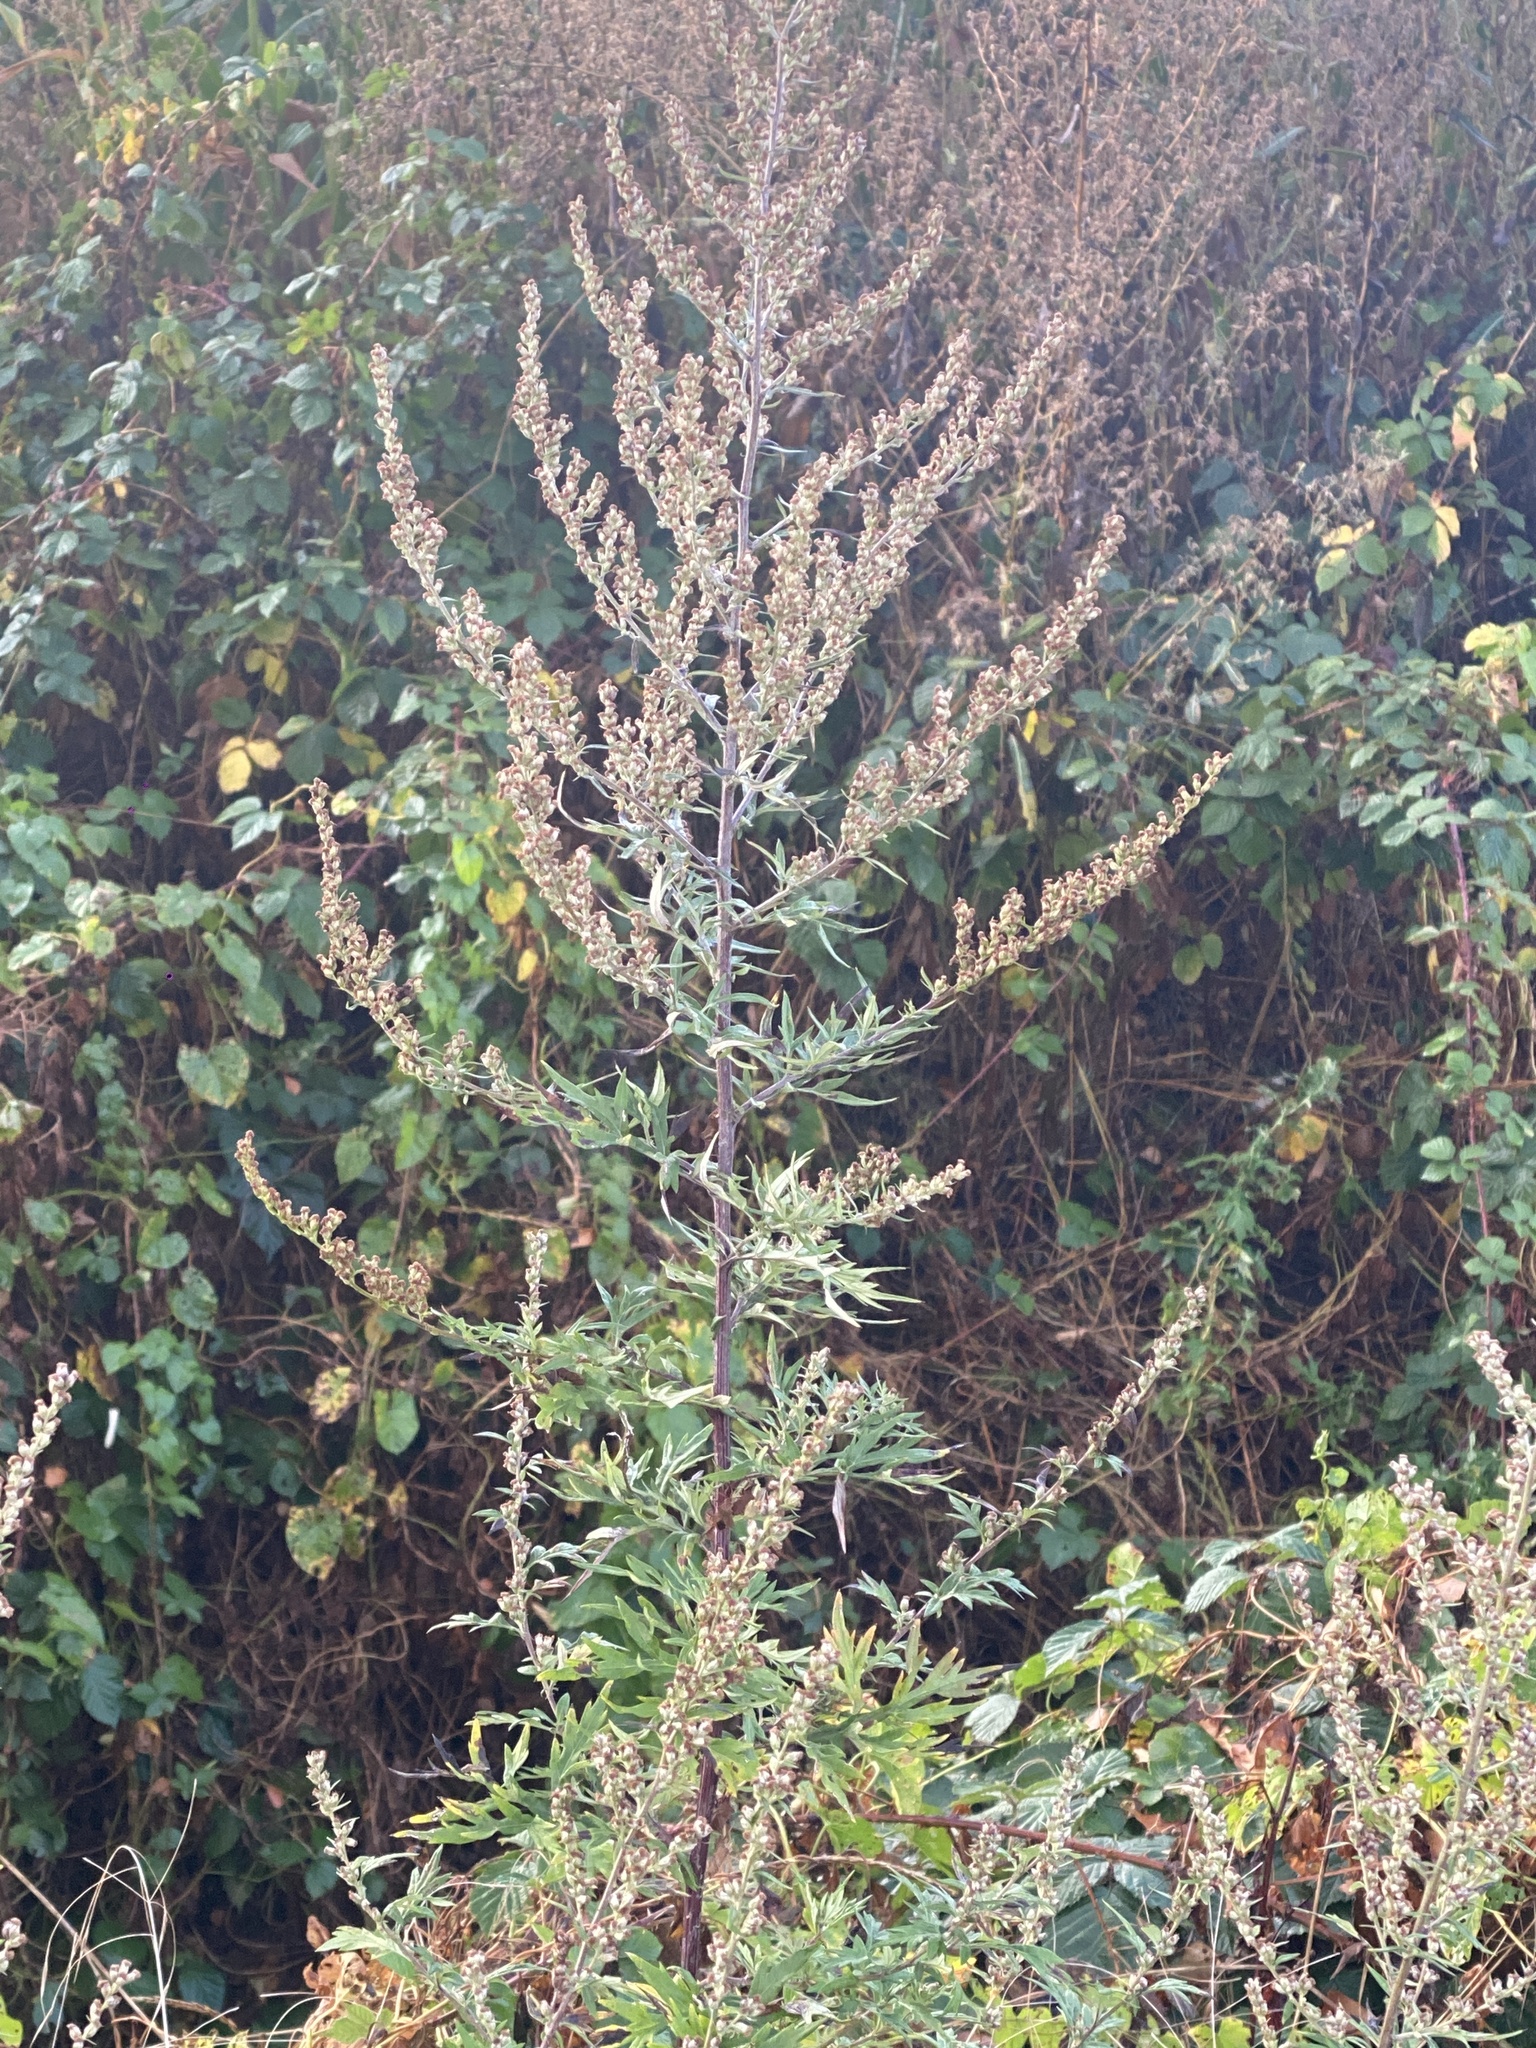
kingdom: Plantae
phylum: Tracheophyta
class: Magnoliopsida
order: Asterales
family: Asteraceae
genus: Artemisia
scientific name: Artemisia vulgaris
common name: Mugwort
